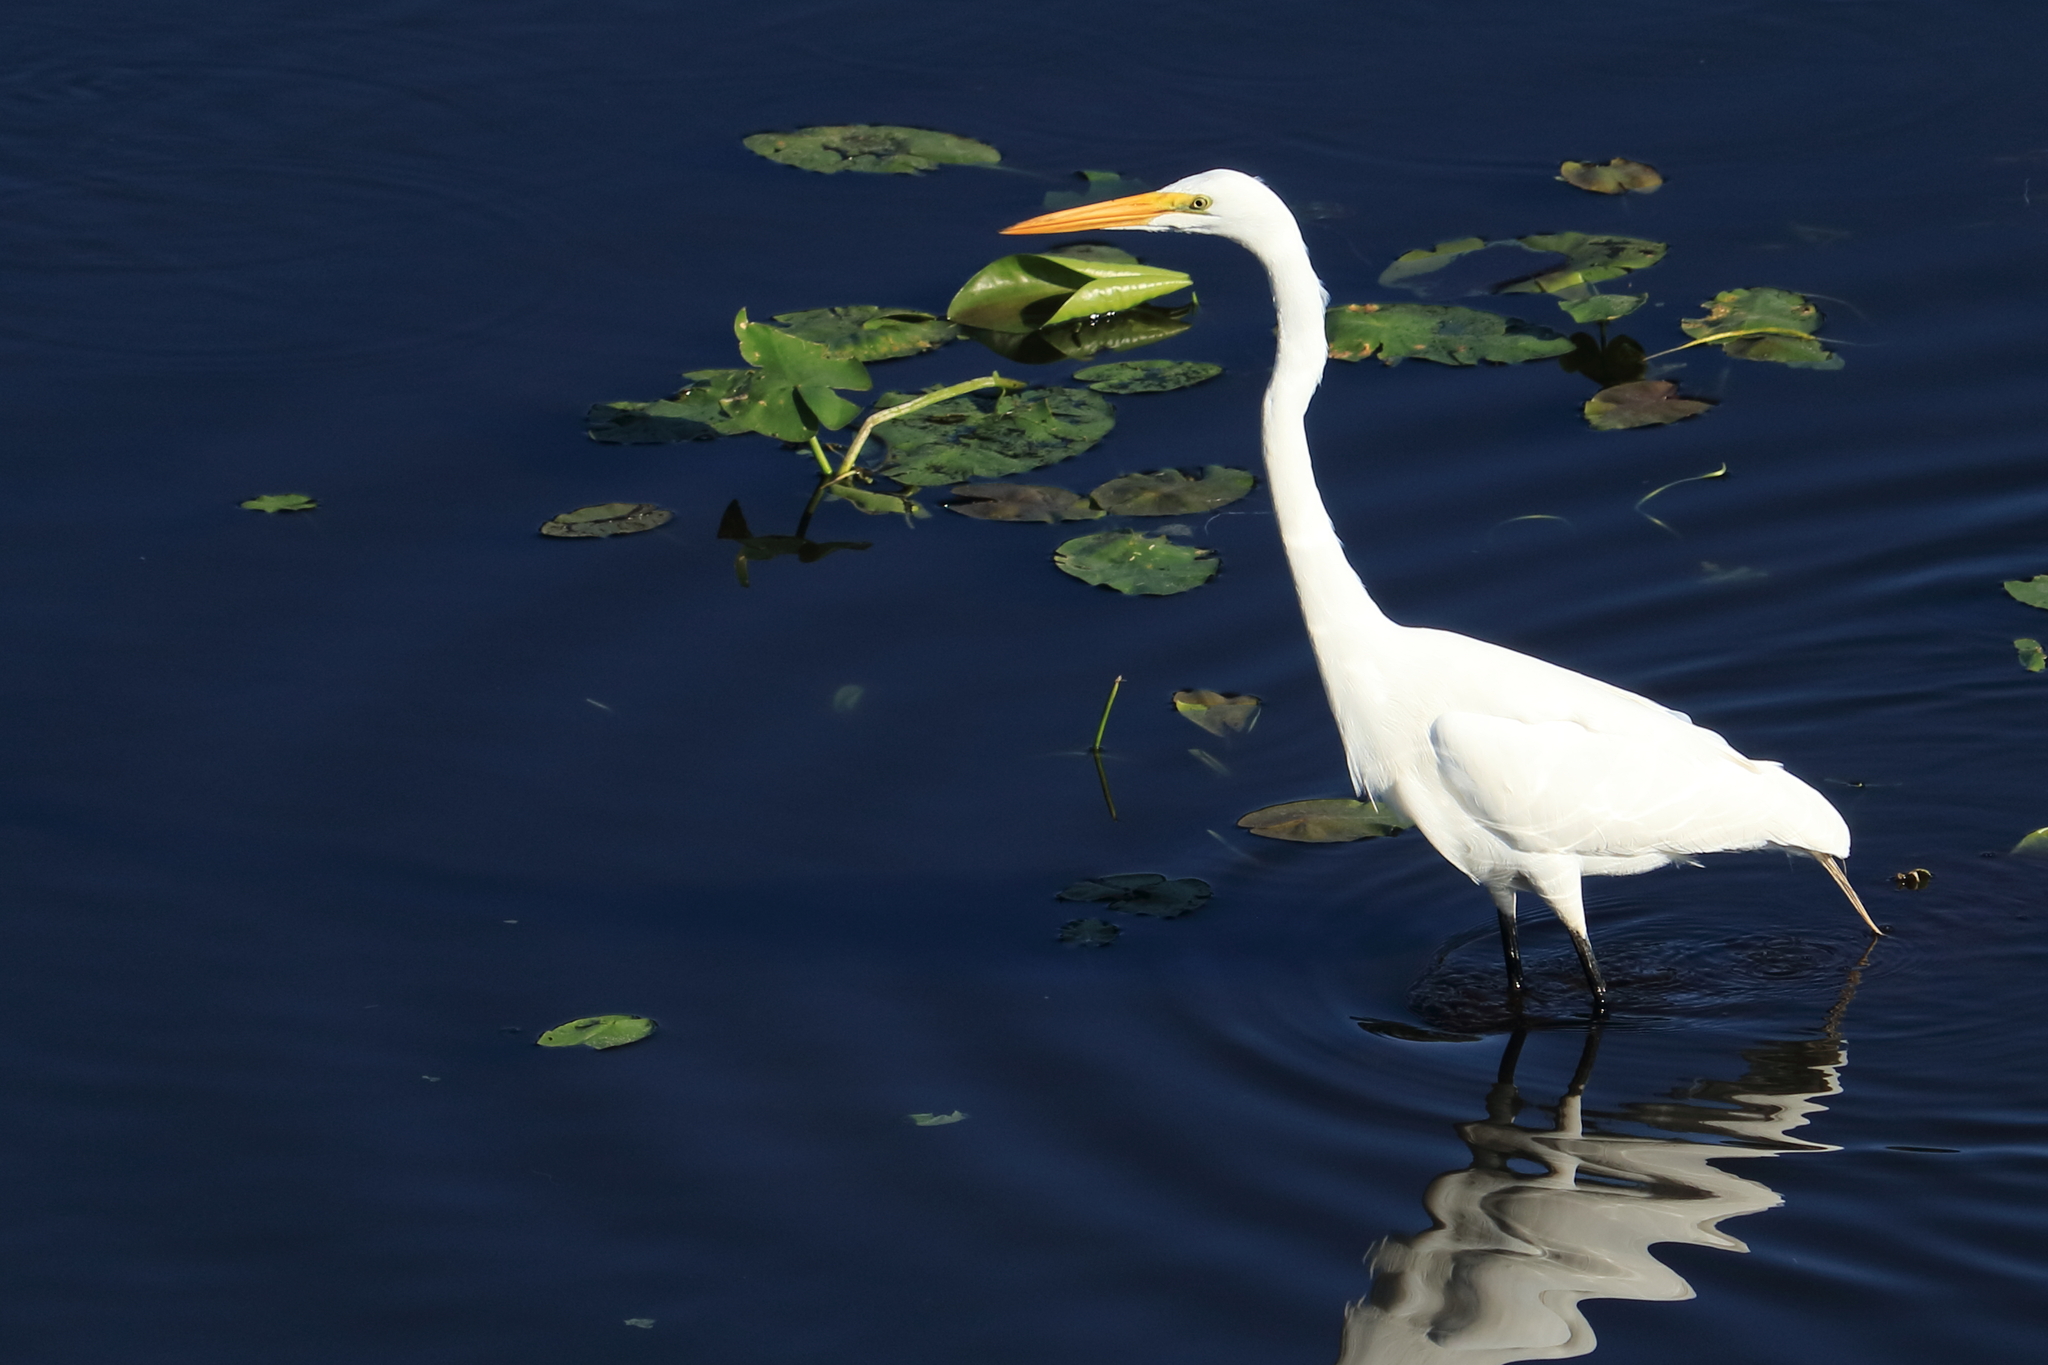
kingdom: Animalia
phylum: Chordata
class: Aves
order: Pelecaniformes
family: Ardeidae
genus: Ardea
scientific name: Ardea alba
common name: Great egret
